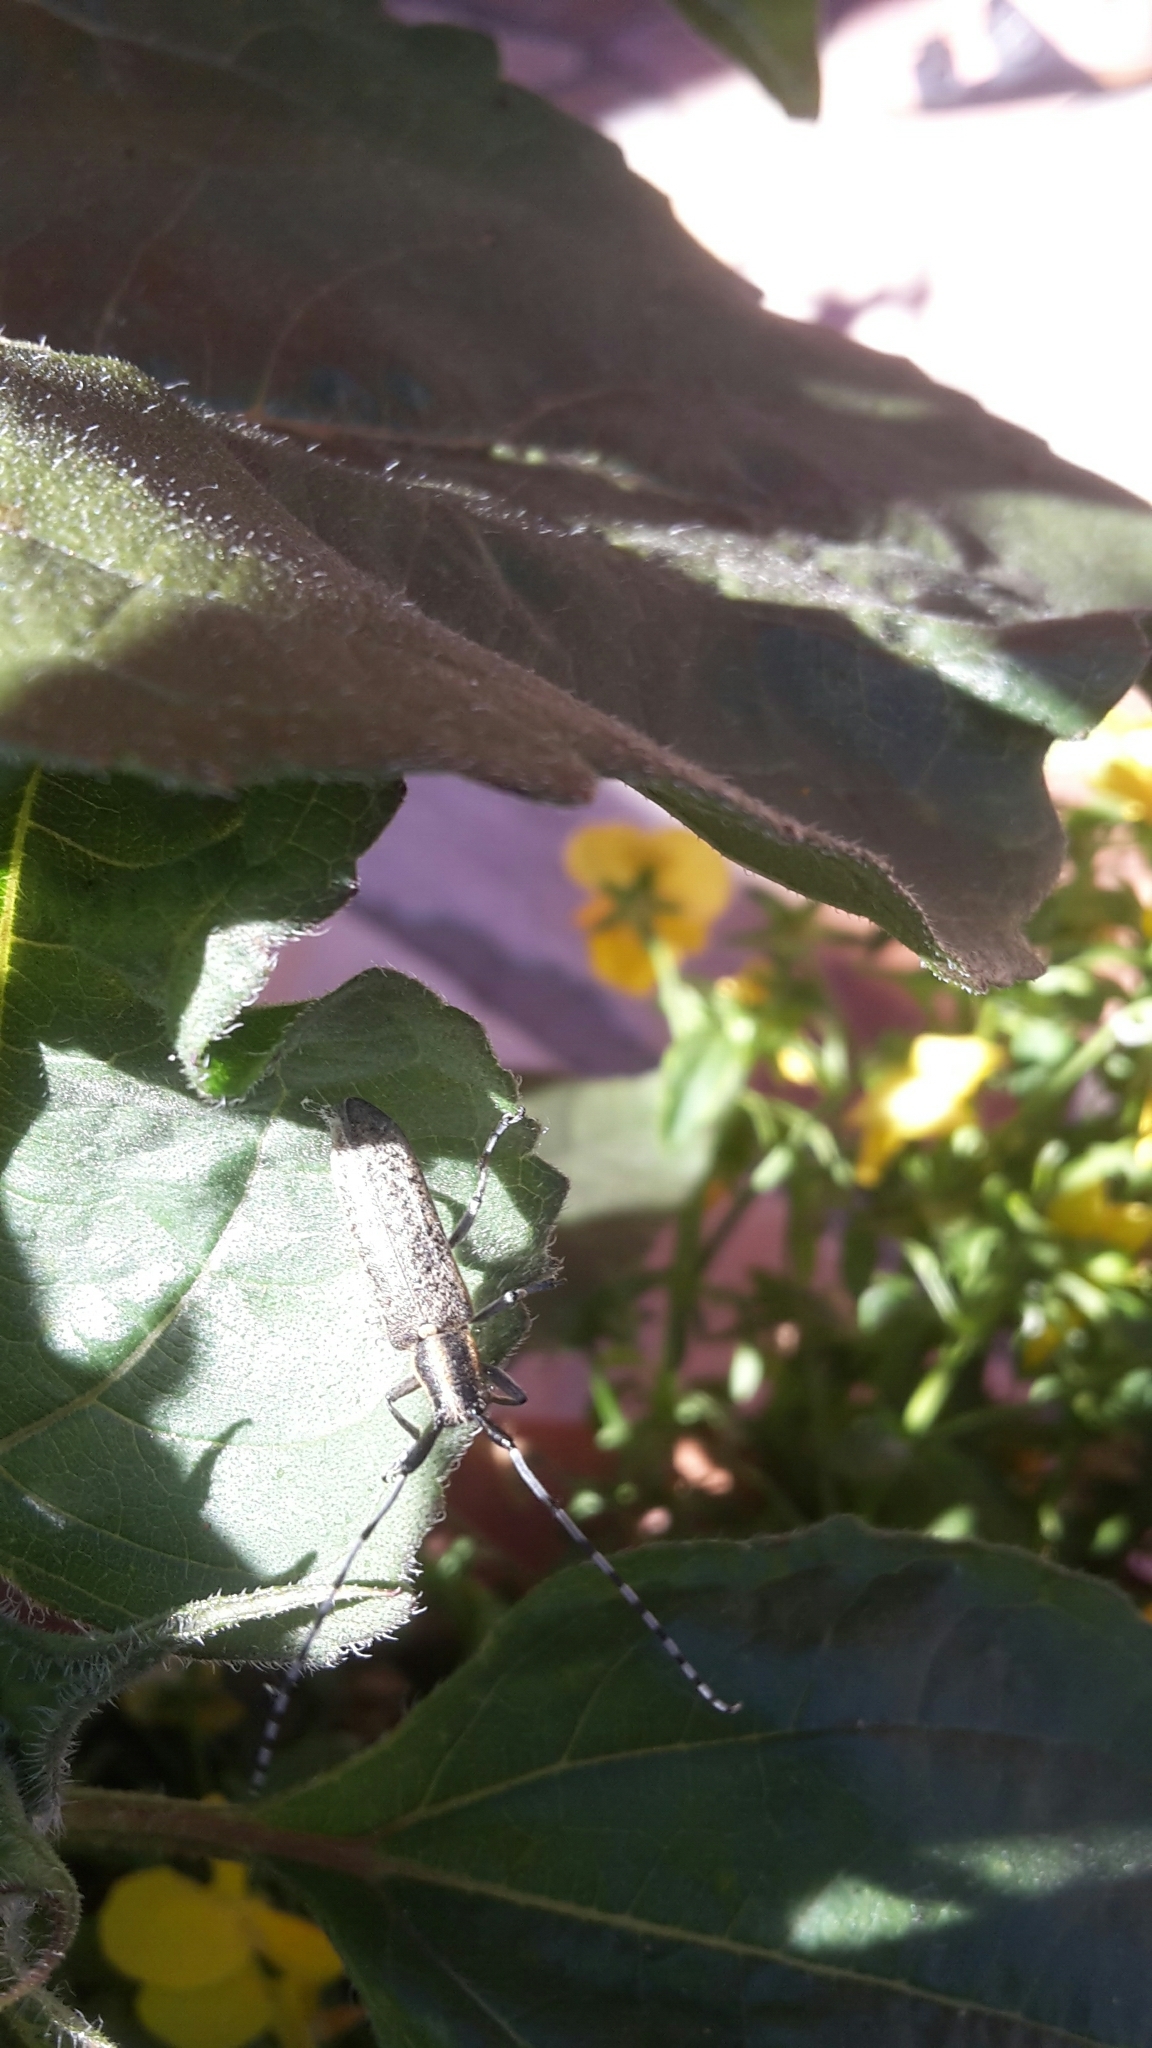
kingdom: Animalia
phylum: Arthropoda
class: Insecta
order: Coleoptera
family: Cerambycidae
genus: Agapanthia
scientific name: Agapanthia villosoviridescens
